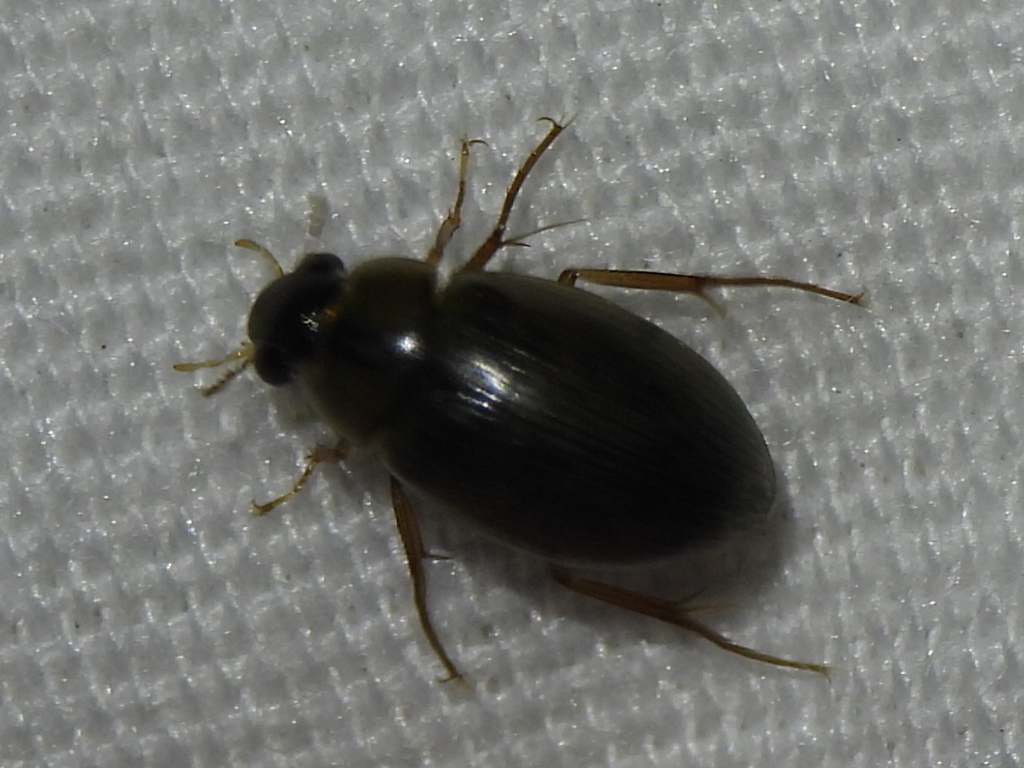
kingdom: Animalia
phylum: Arthropoda
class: Insecta
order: Coleoptera
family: Hydrophilidae
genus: Berosus
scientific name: Berosus
